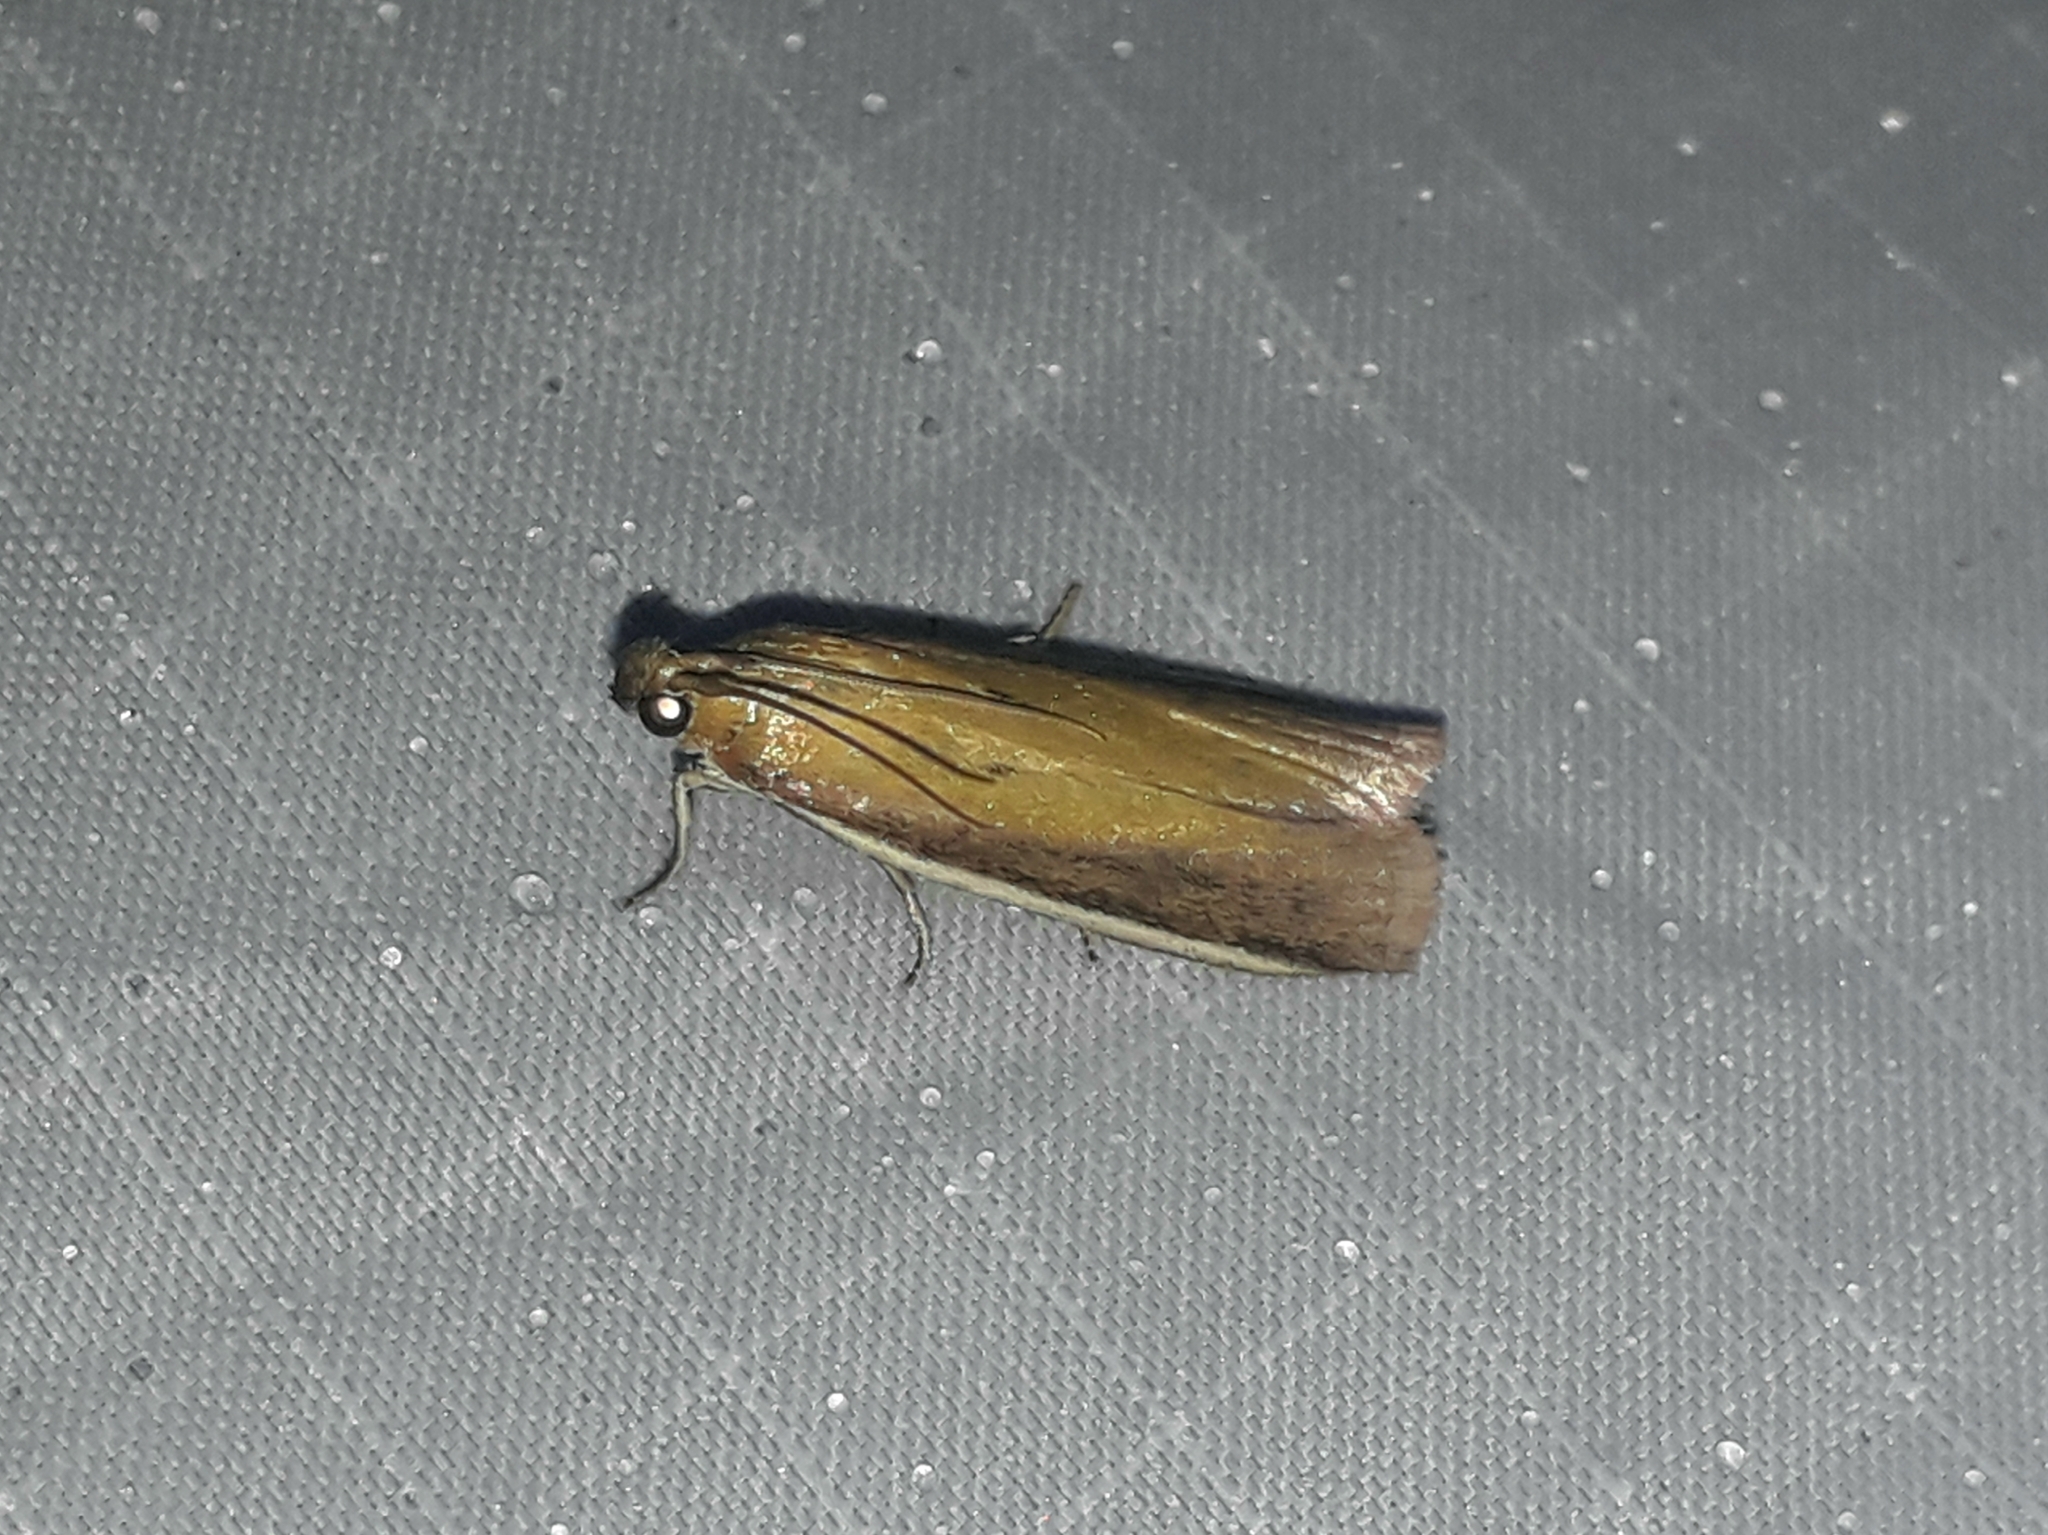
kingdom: Animalia
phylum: Arthropoda
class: Insecta
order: Lepidoptera
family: Pyralidae
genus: Oncocera
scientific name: Oncocera semirubella
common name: Rosy-striped knot-horn
